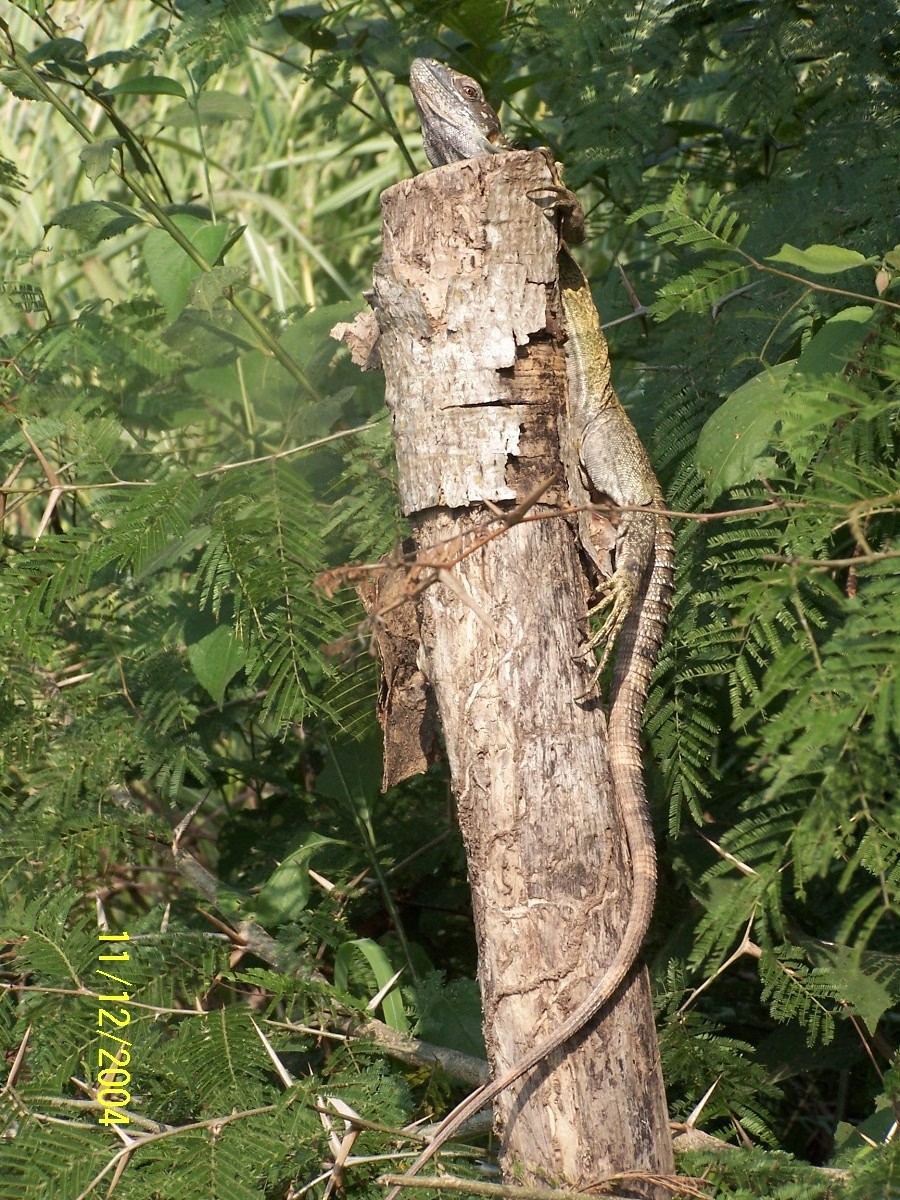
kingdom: Animalia
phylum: Chordata
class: Squamata
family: Iguanidae
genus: Ctenosaura
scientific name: Ctenosaura pectinata
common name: Guerreran spiny-tailed iguana
